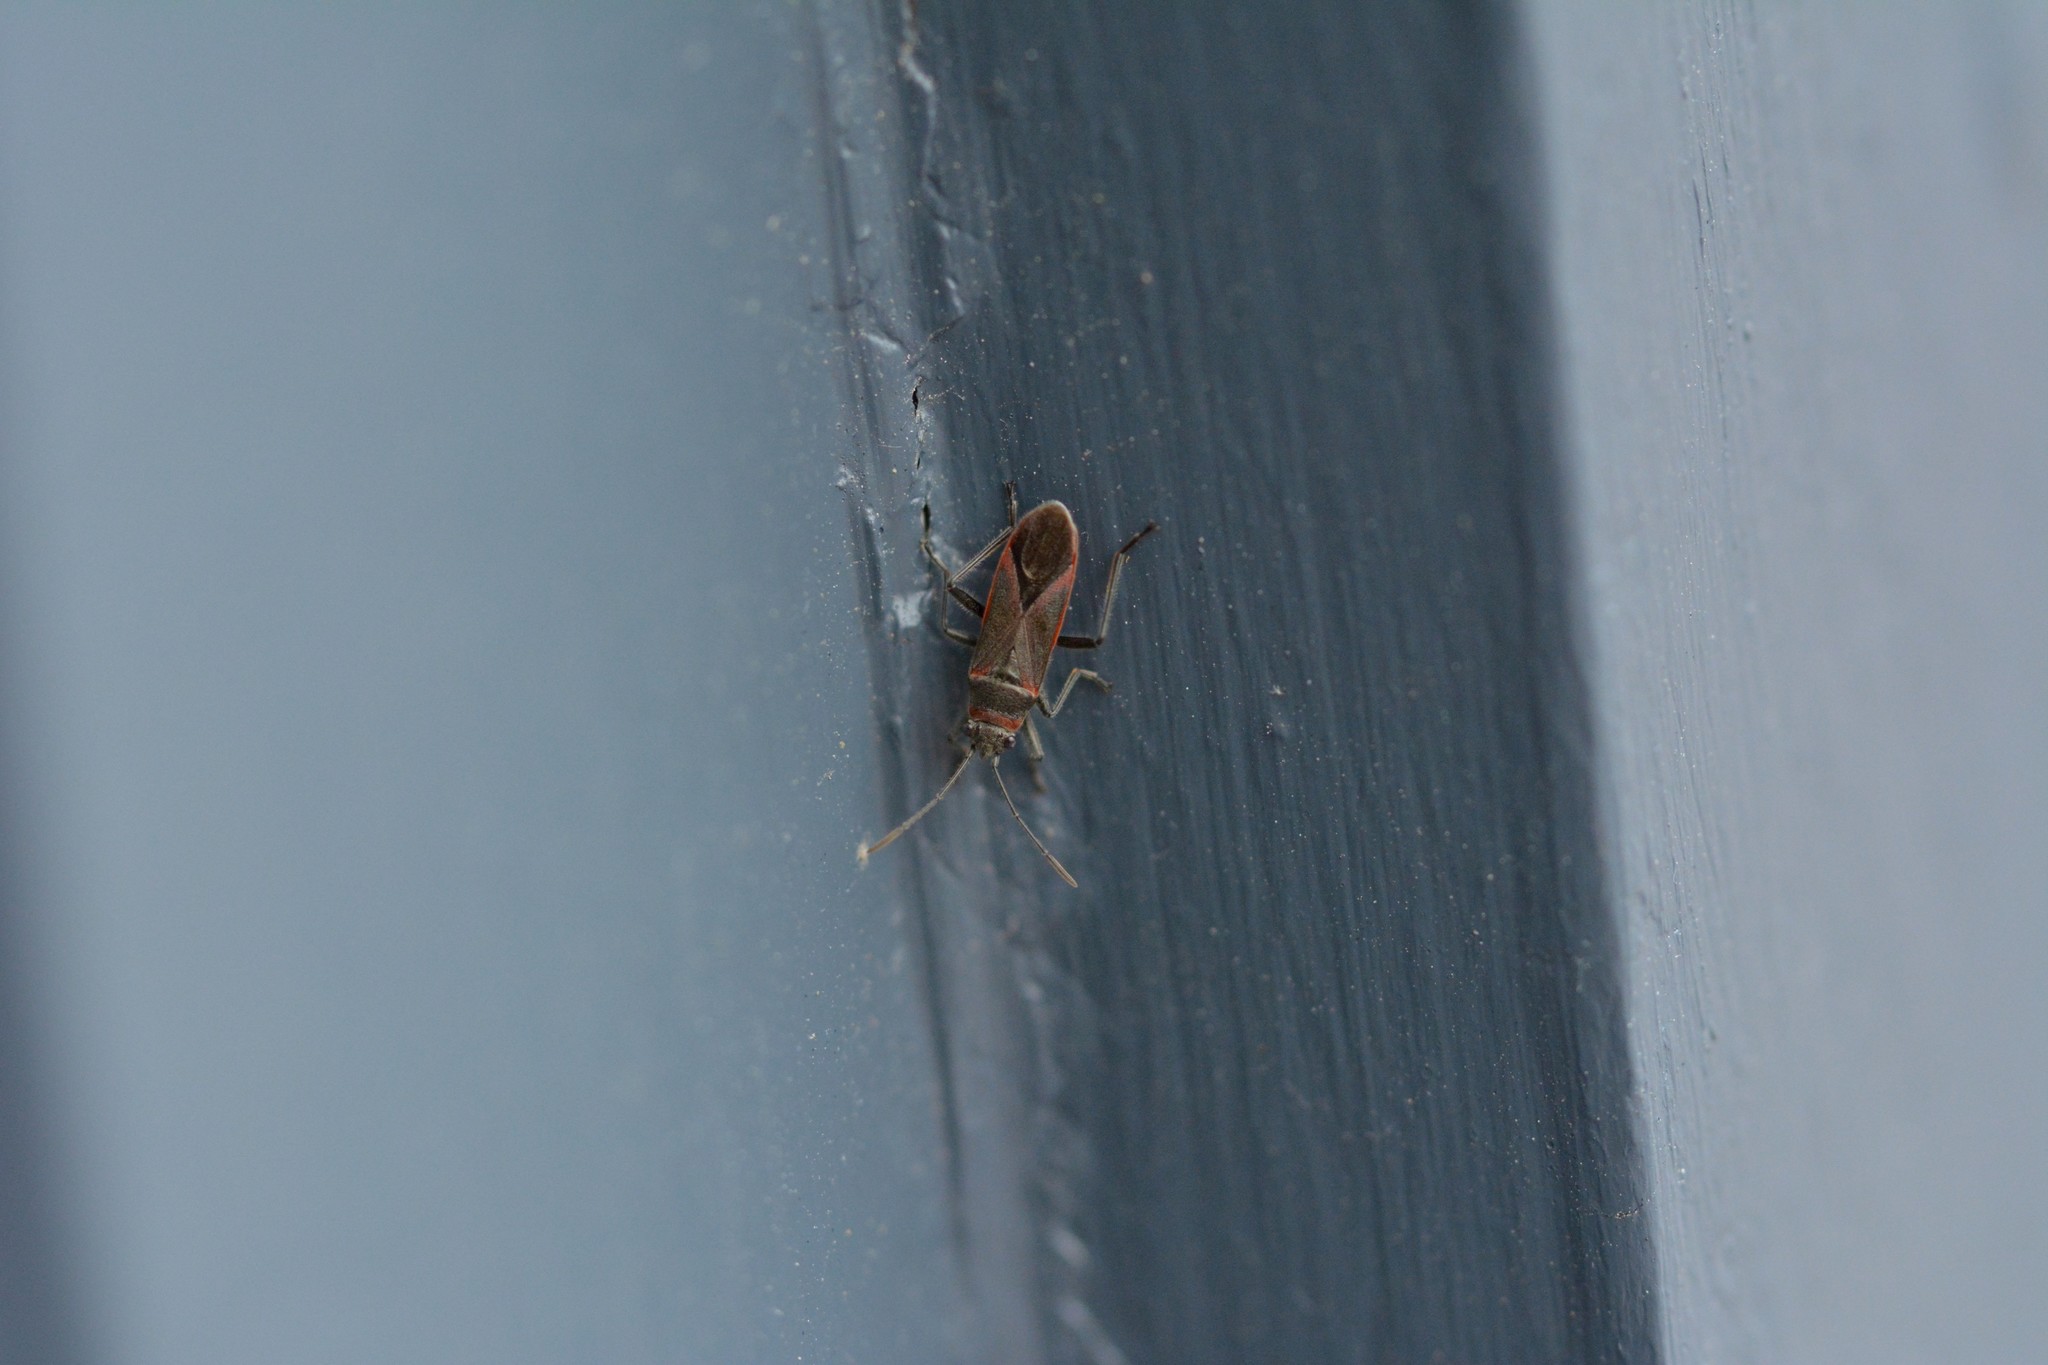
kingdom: Animalia
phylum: Arthropoda
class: Insecta
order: Hemiptera
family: Lygaeidae
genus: Arocatus
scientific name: Arocatus rusticus
